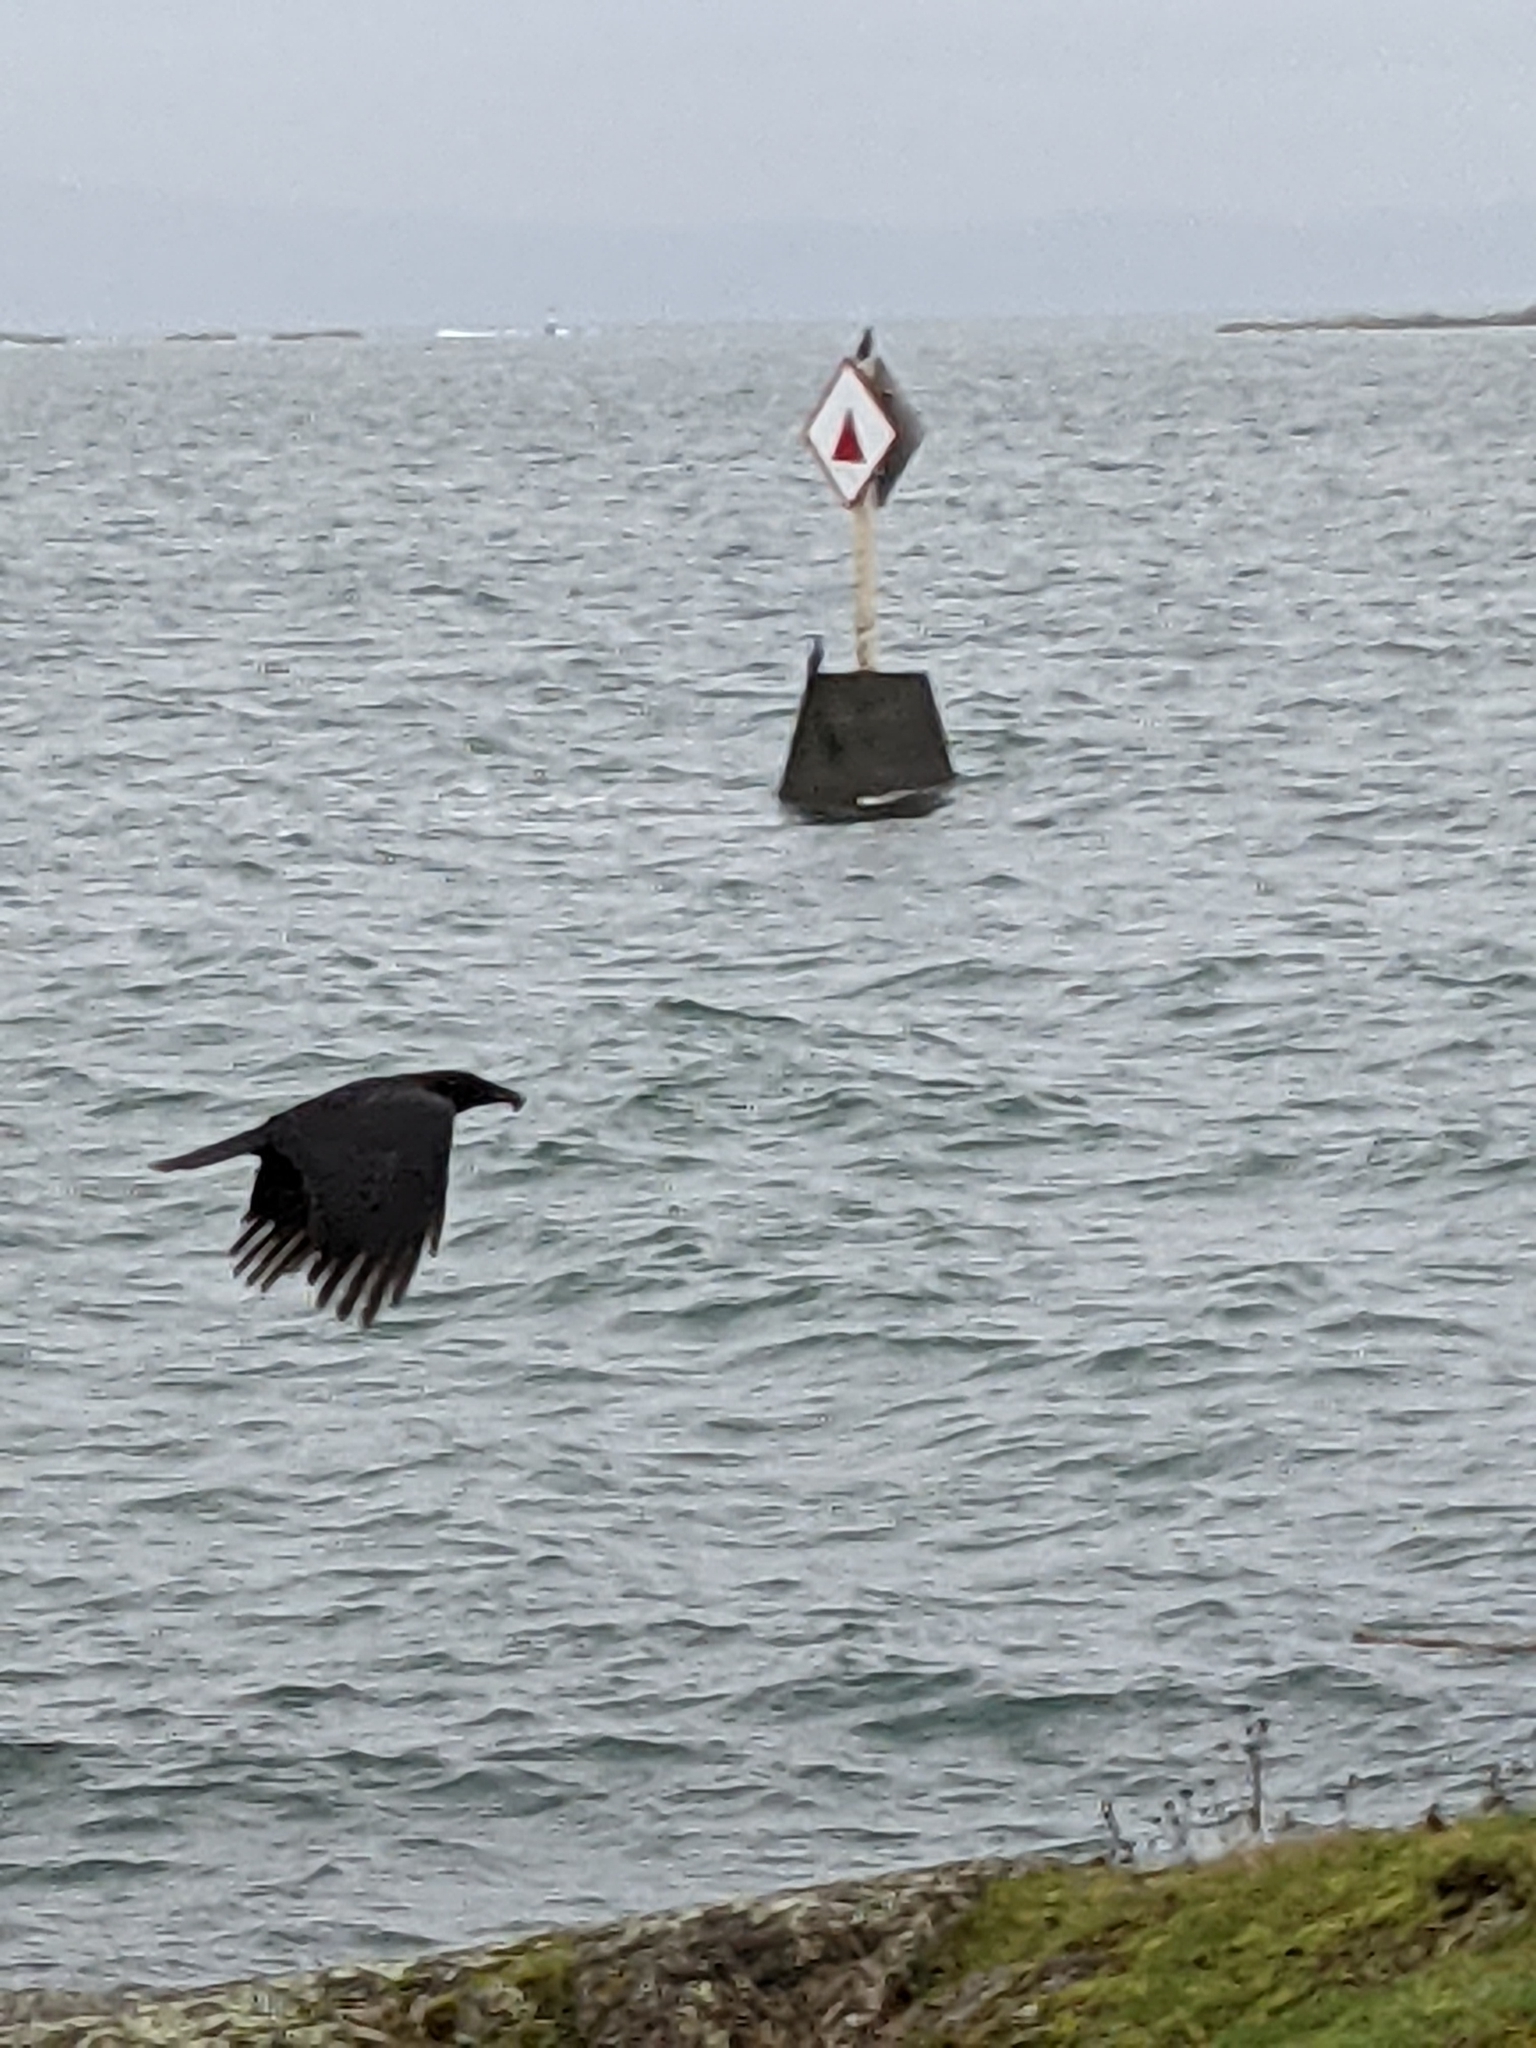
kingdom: Animalia
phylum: Chordata
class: Aves
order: Passeriformes
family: Corvidae
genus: Corvus
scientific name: Corvus brachyrhynchos
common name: American crow
